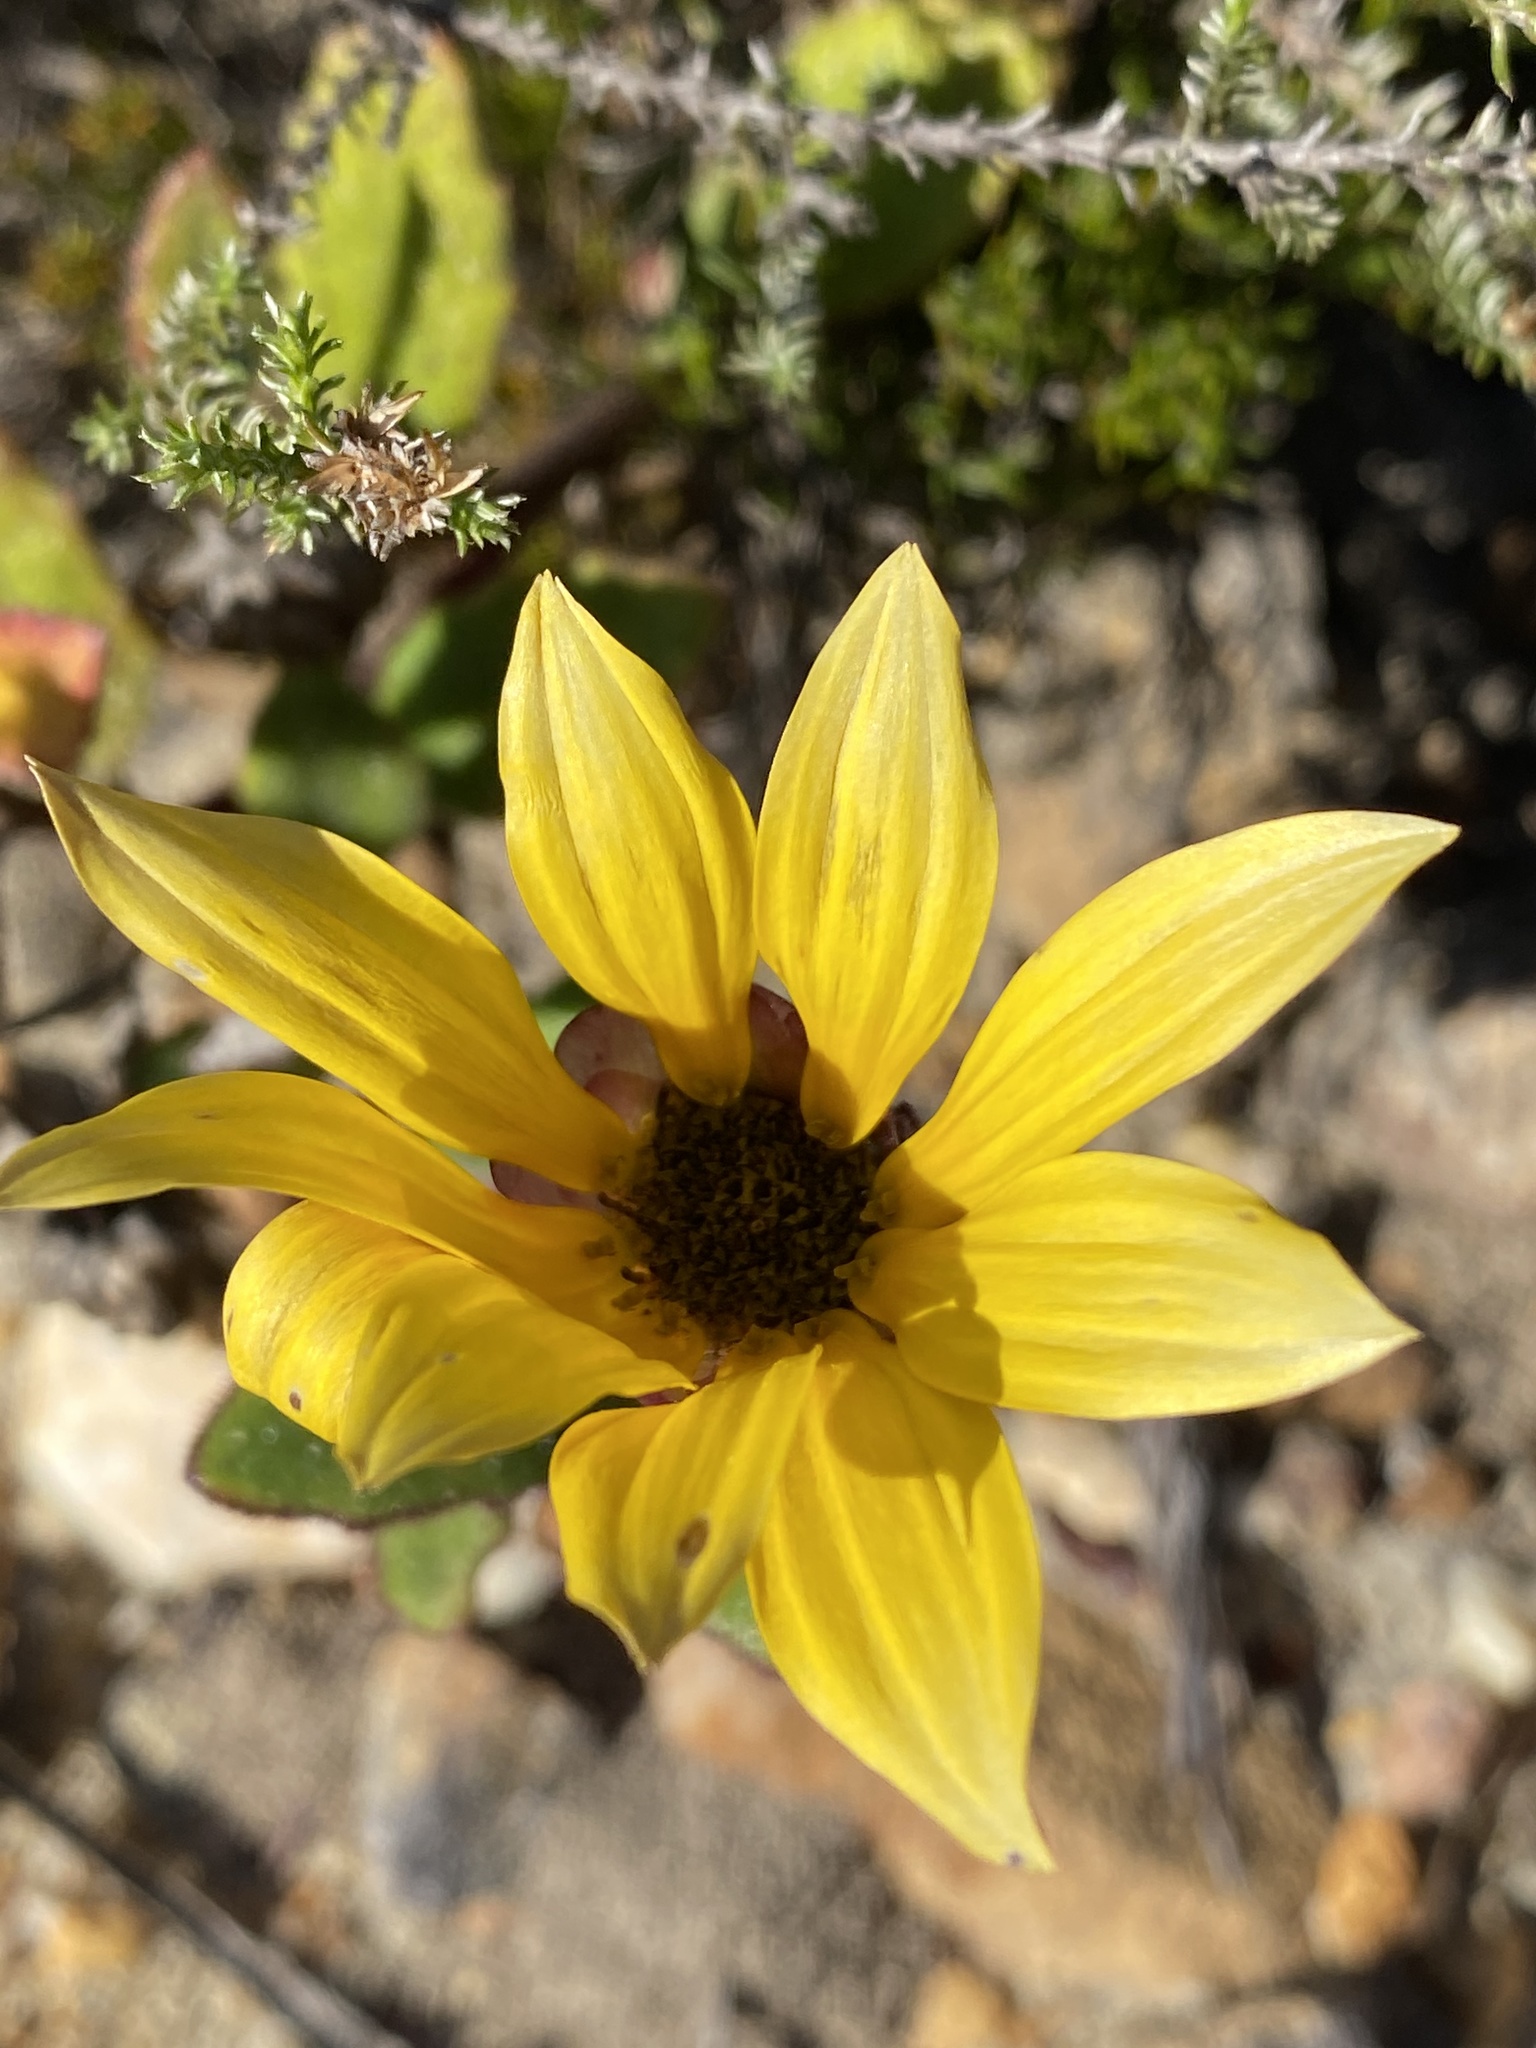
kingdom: Plantae
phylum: Tracheophyta
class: Magnoliopsida
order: Asterales
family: Asteraceae
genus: Arctotis
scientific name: Arctotis angustifolia
